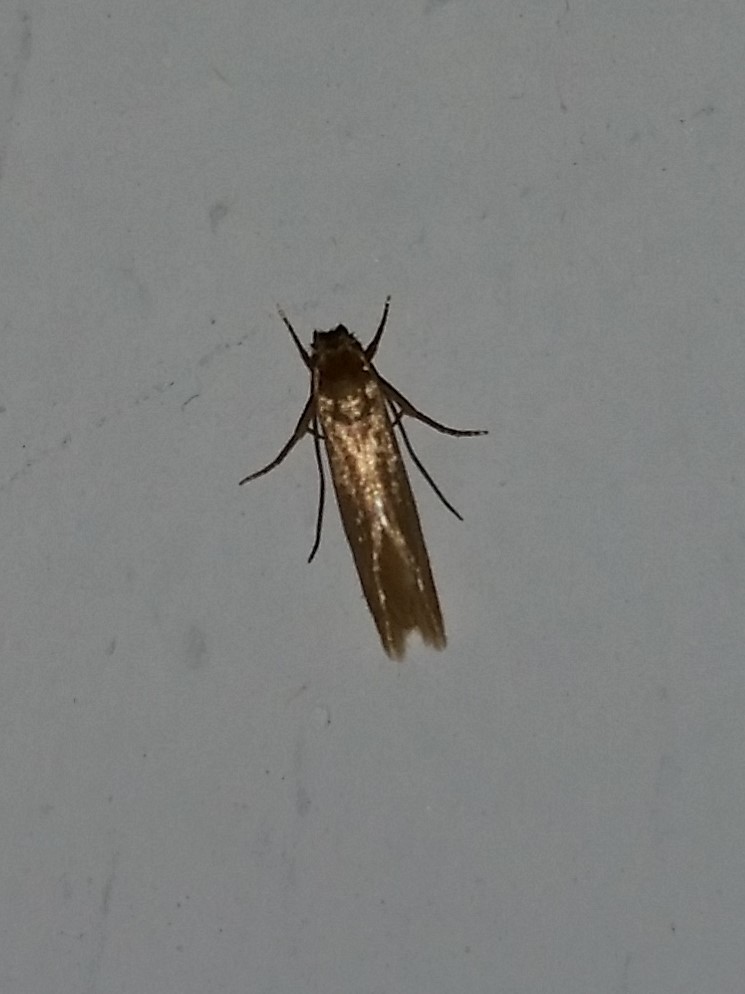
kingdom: Animalia
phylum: Arthropoda
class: Insecta
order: Lepidoptera
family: Tineidae
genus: Tineola
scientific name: Tineola bisselliella
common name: Webbing clothes moth
